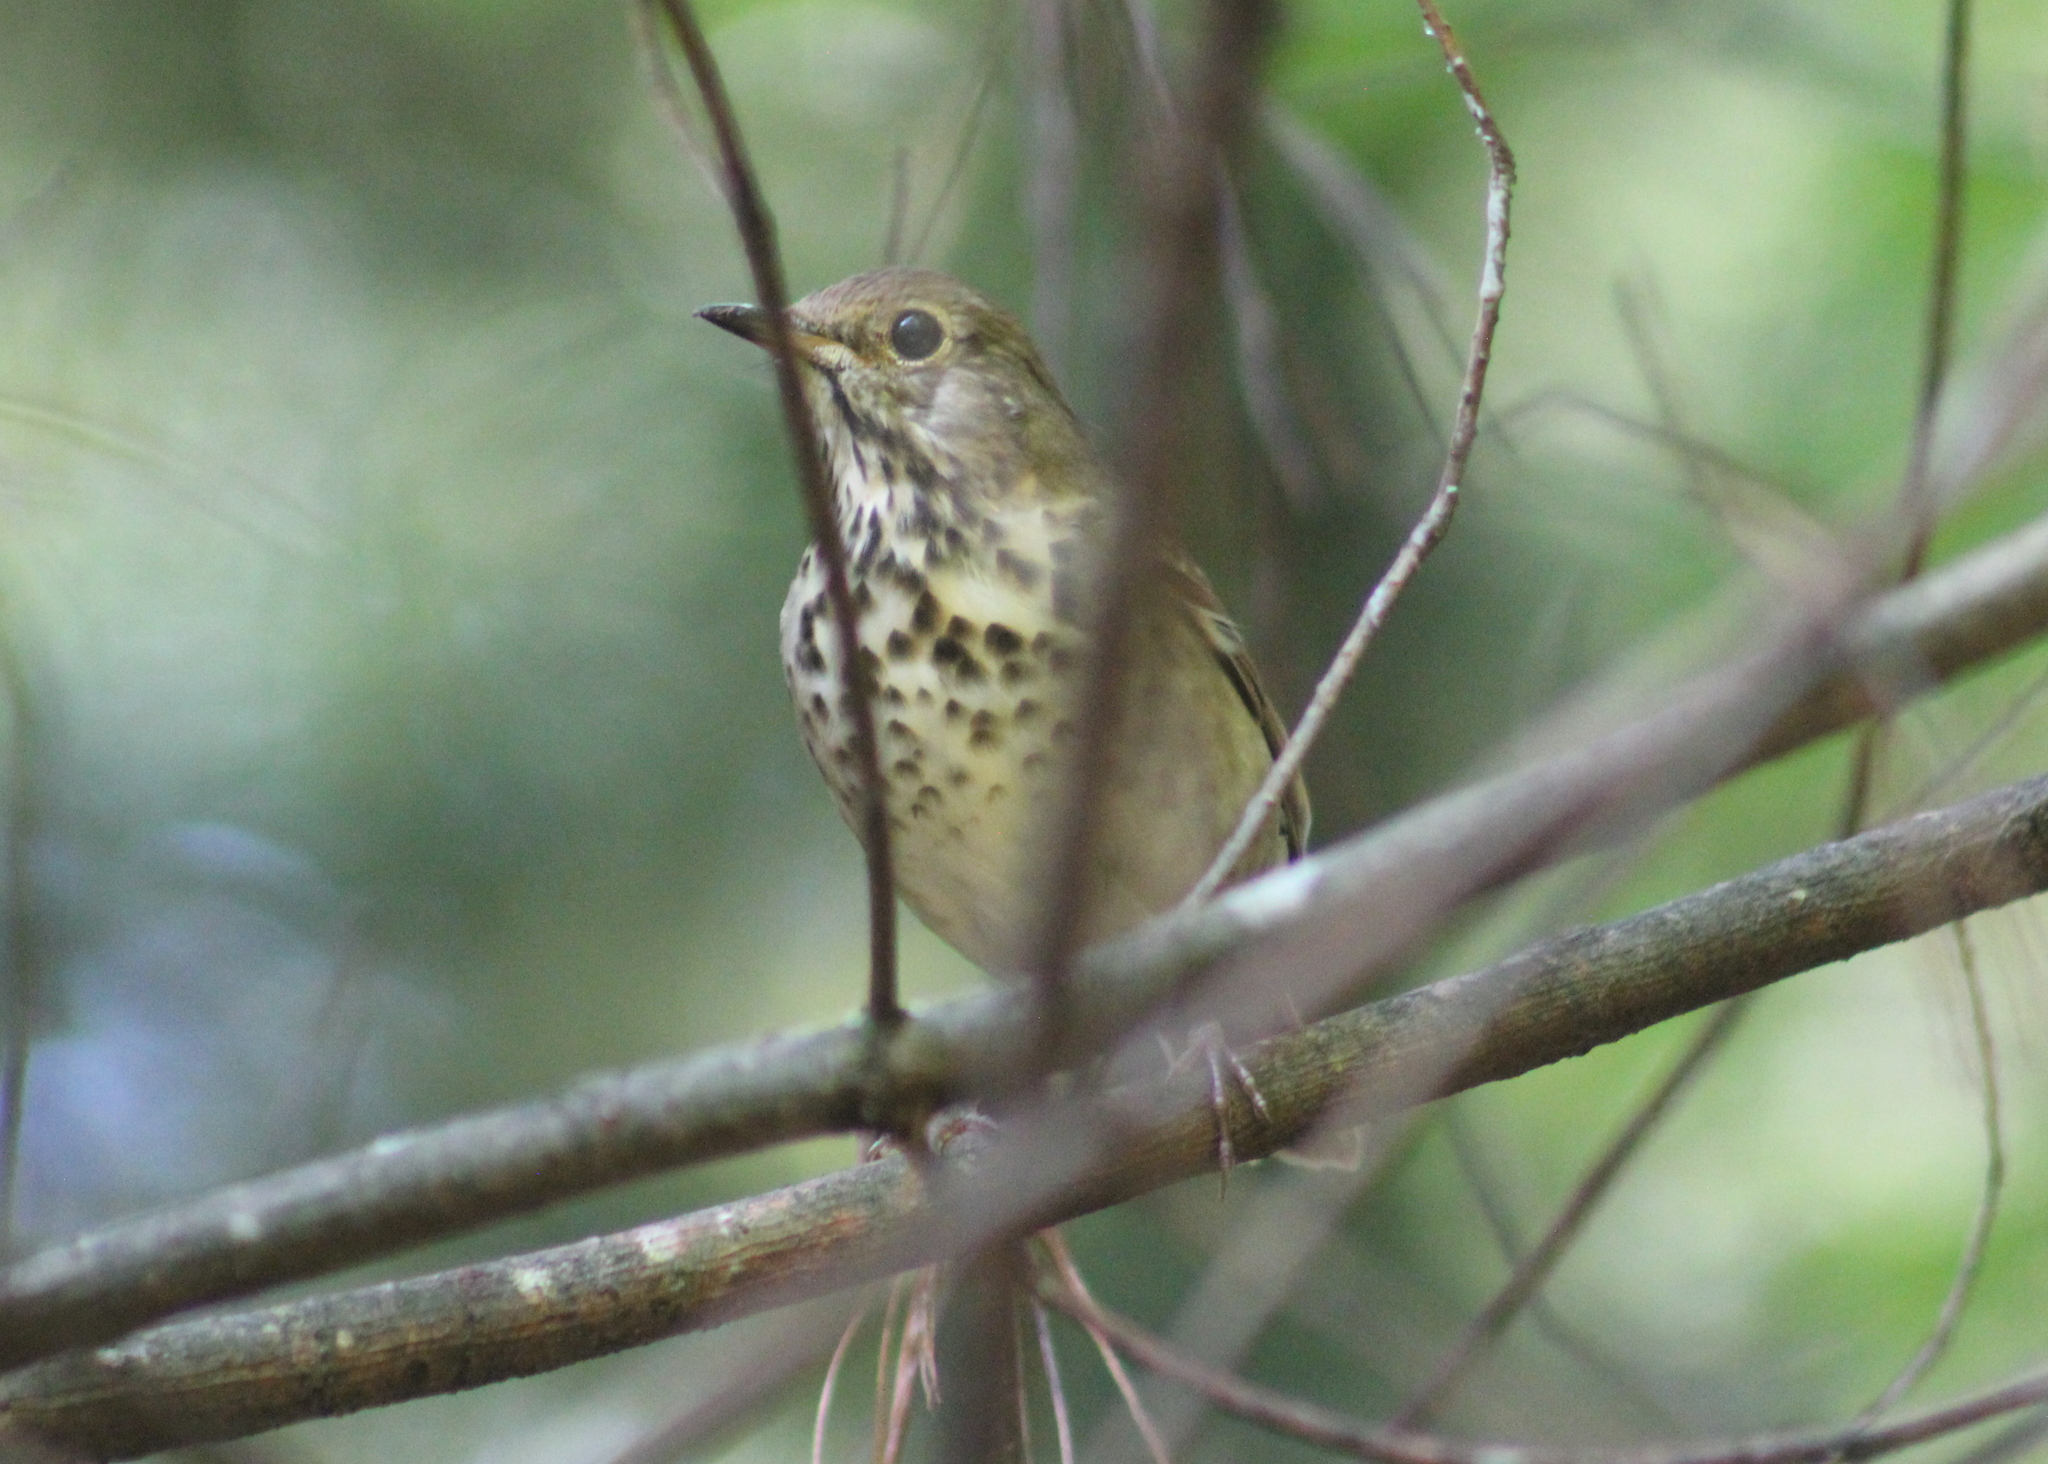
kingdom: Animalia
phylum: Chordata
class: Aves
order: Passeriformes
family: Turdidae
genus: Catharus
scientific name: Catharus guttatus
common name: Hermit thrush
